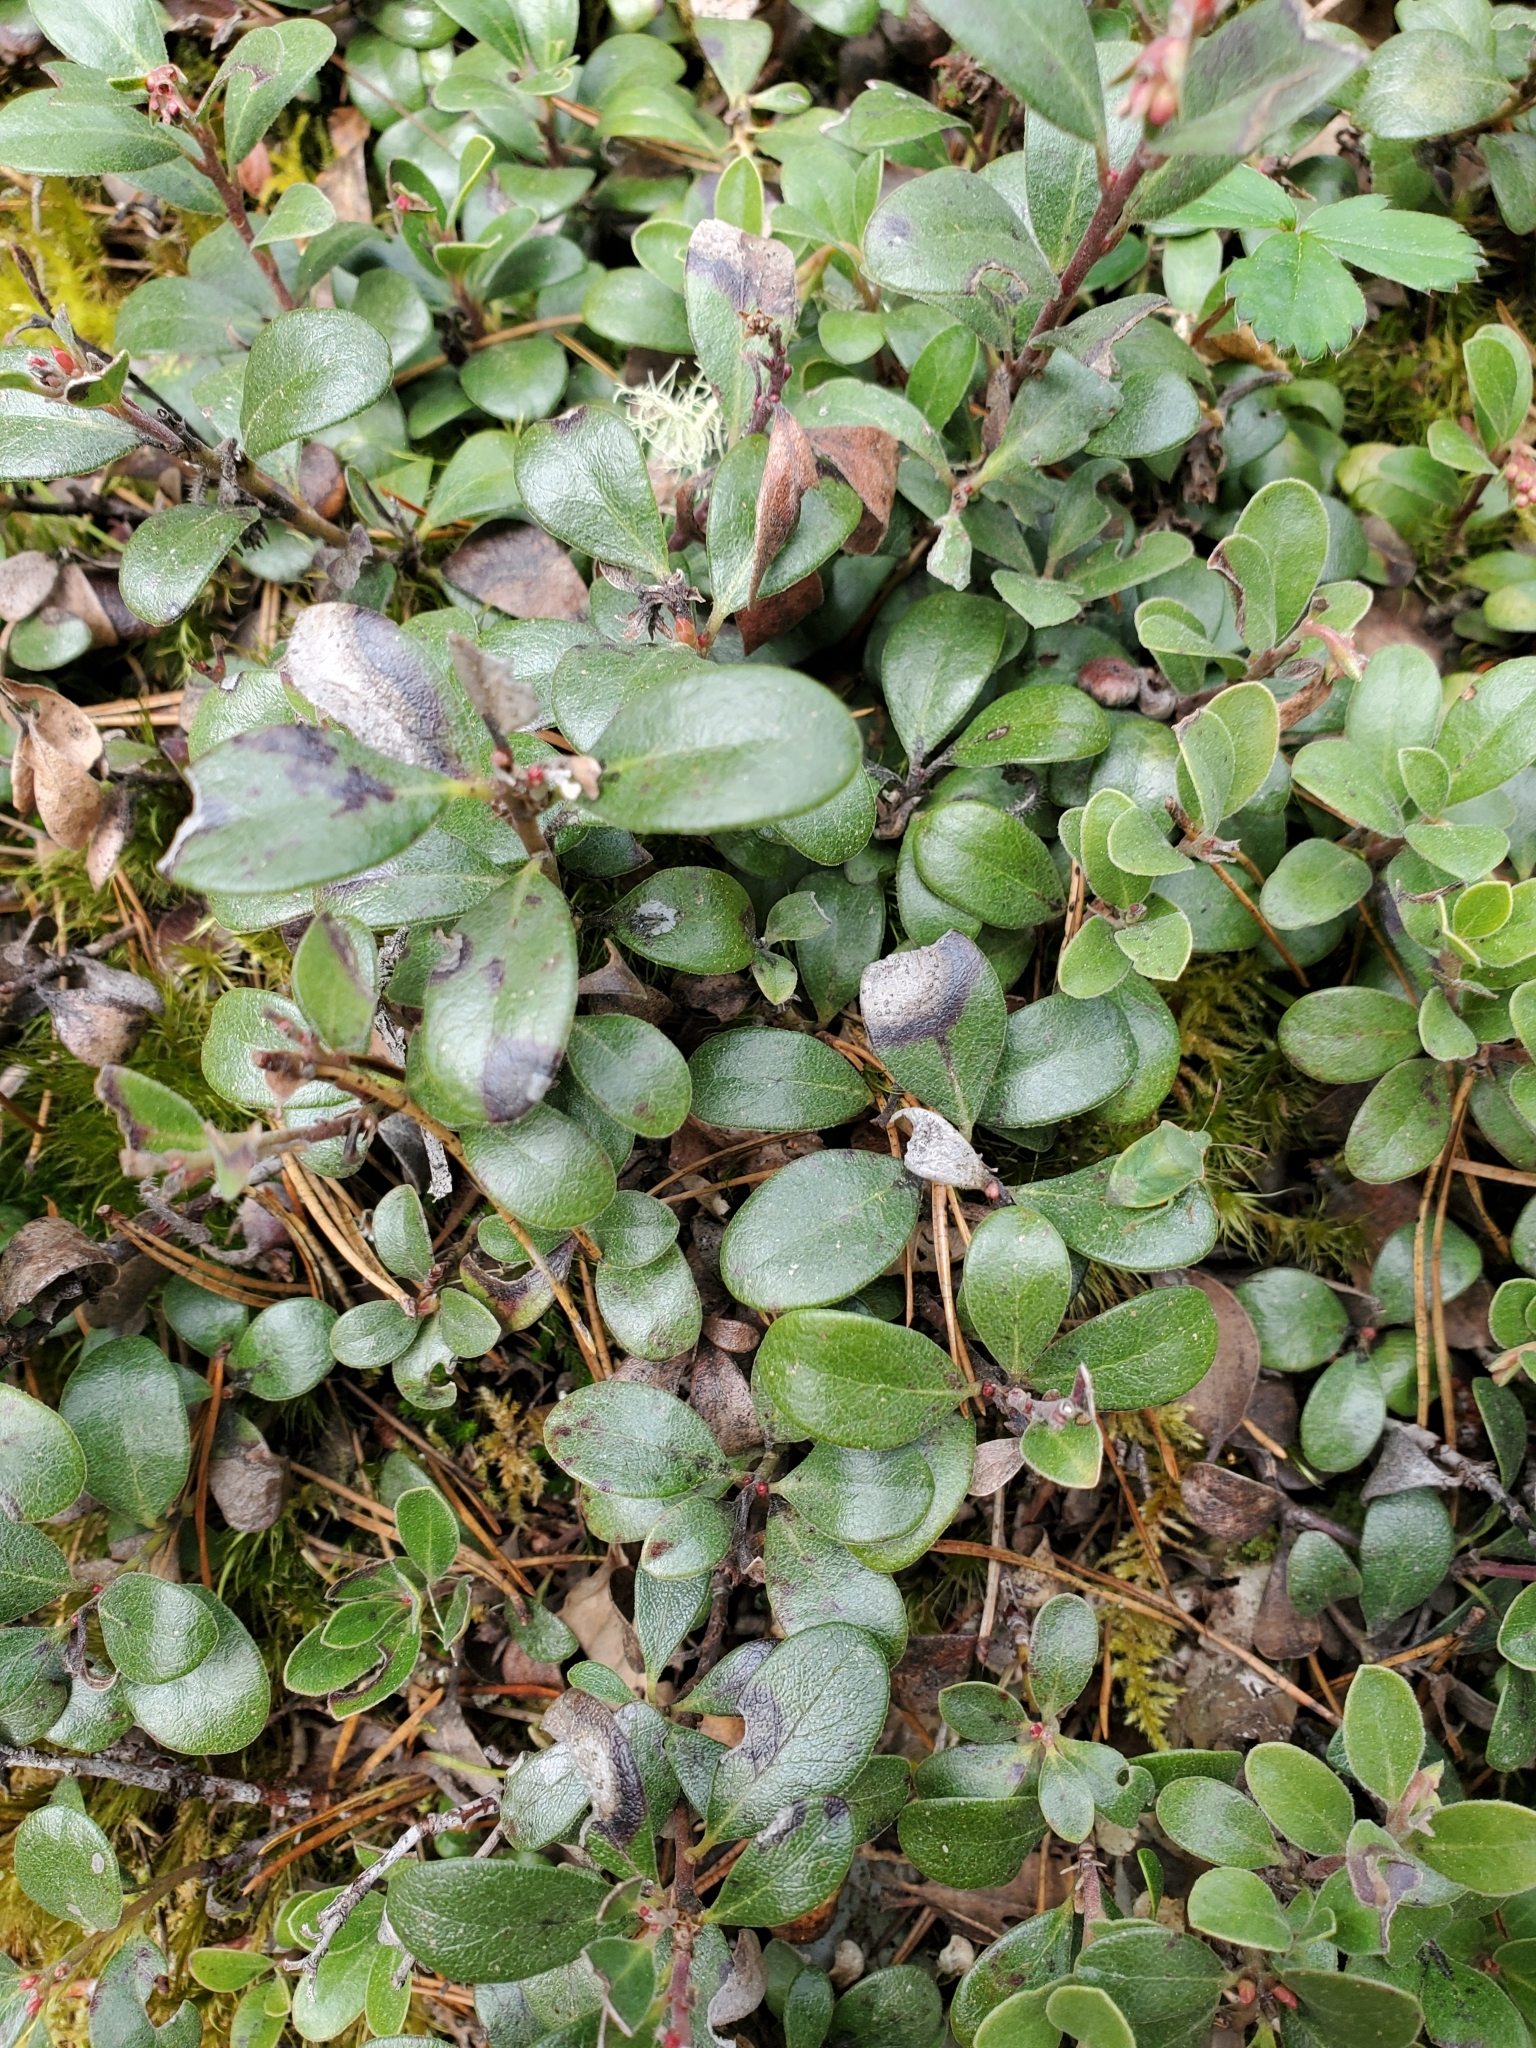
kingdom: Plantae
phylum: Tracheophyta
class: Magnoliopsida
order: Ericales
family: Ericaceae
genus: Arctostaphylos
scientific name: Arctostaphylos uva-ursi
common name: Bearberry
